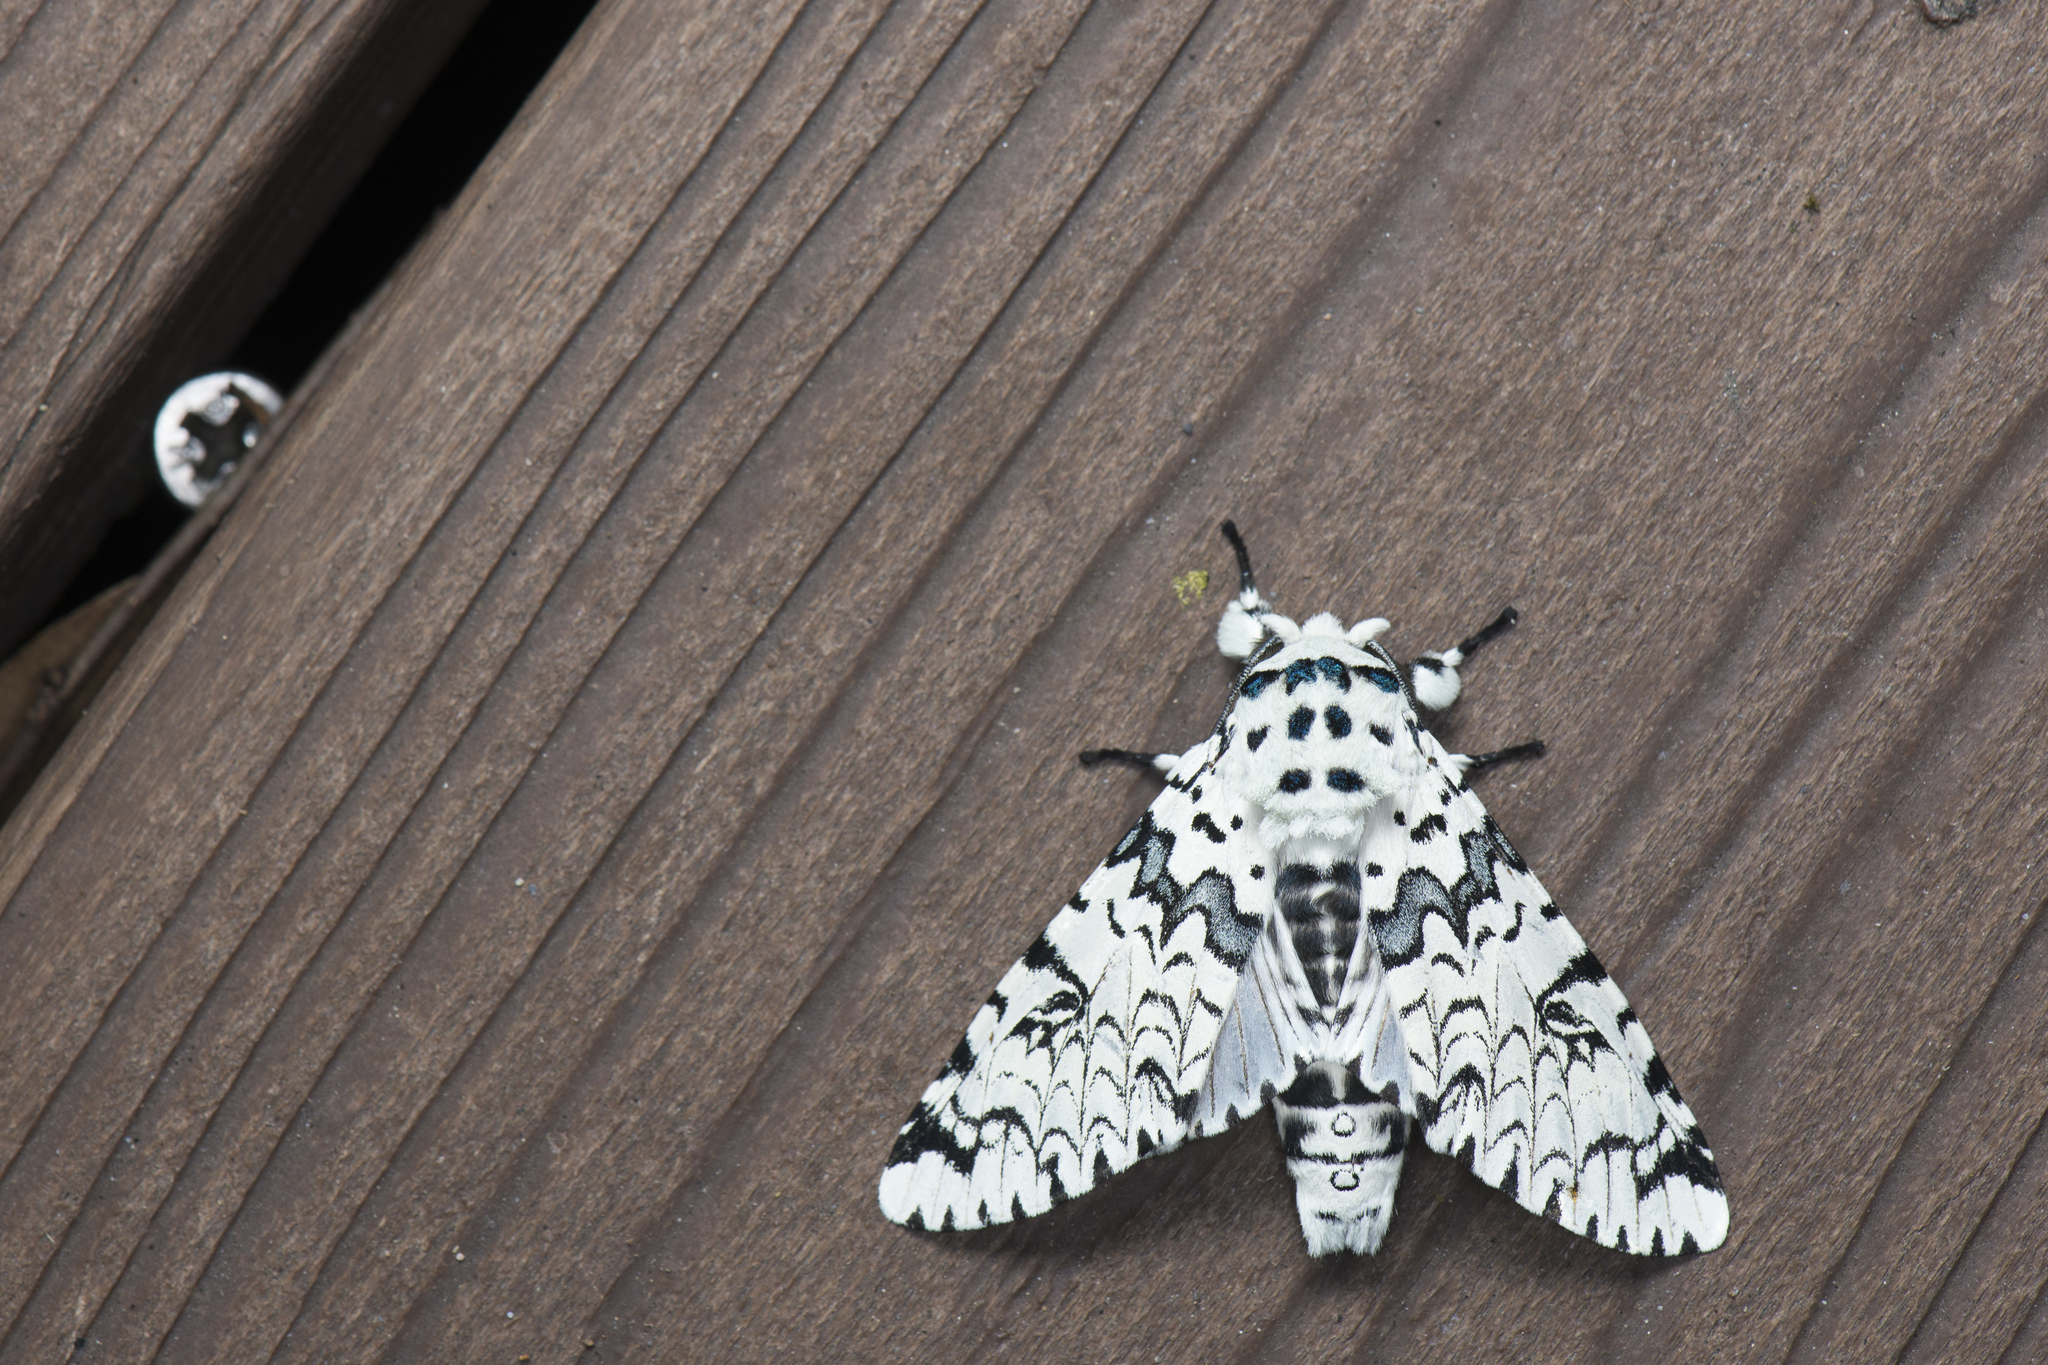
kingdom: Animalia
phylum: Arthropoda
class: Insecta
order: Lepidoptera
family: Notodontidae
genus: Kamalia
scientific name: Kamalia tattakana
